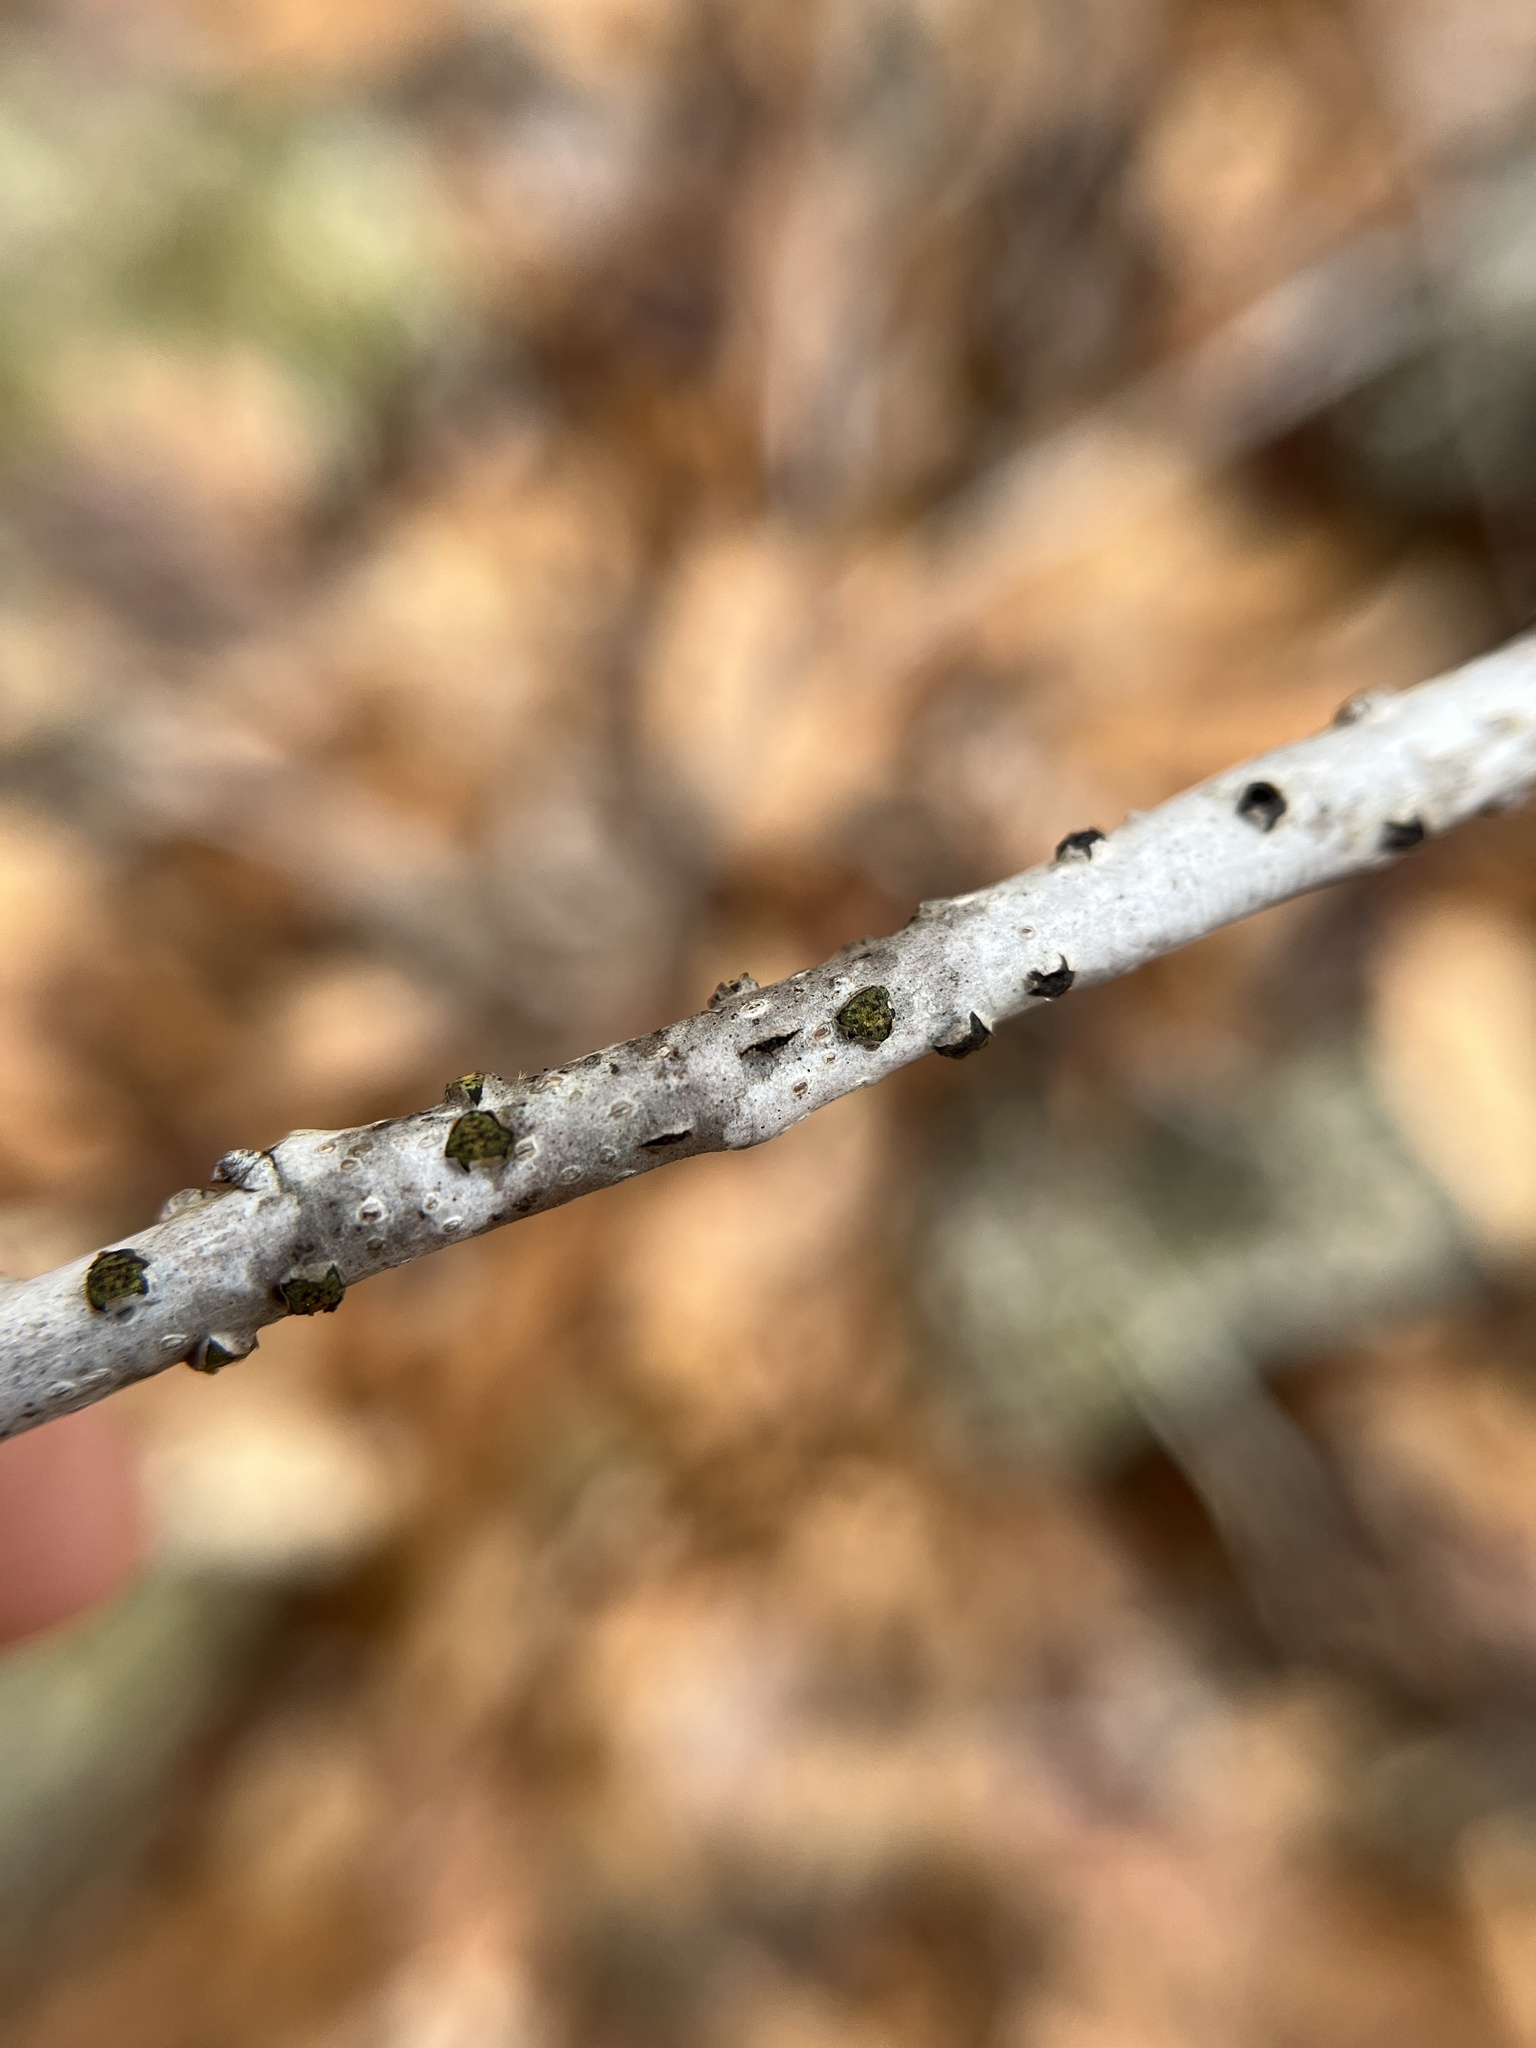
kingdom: Fungi
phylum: Ascomycota
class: Sordariomycetes
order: Xylariales
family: Diatrypaceae
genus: Diatrype
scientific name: Diatrype virescens
